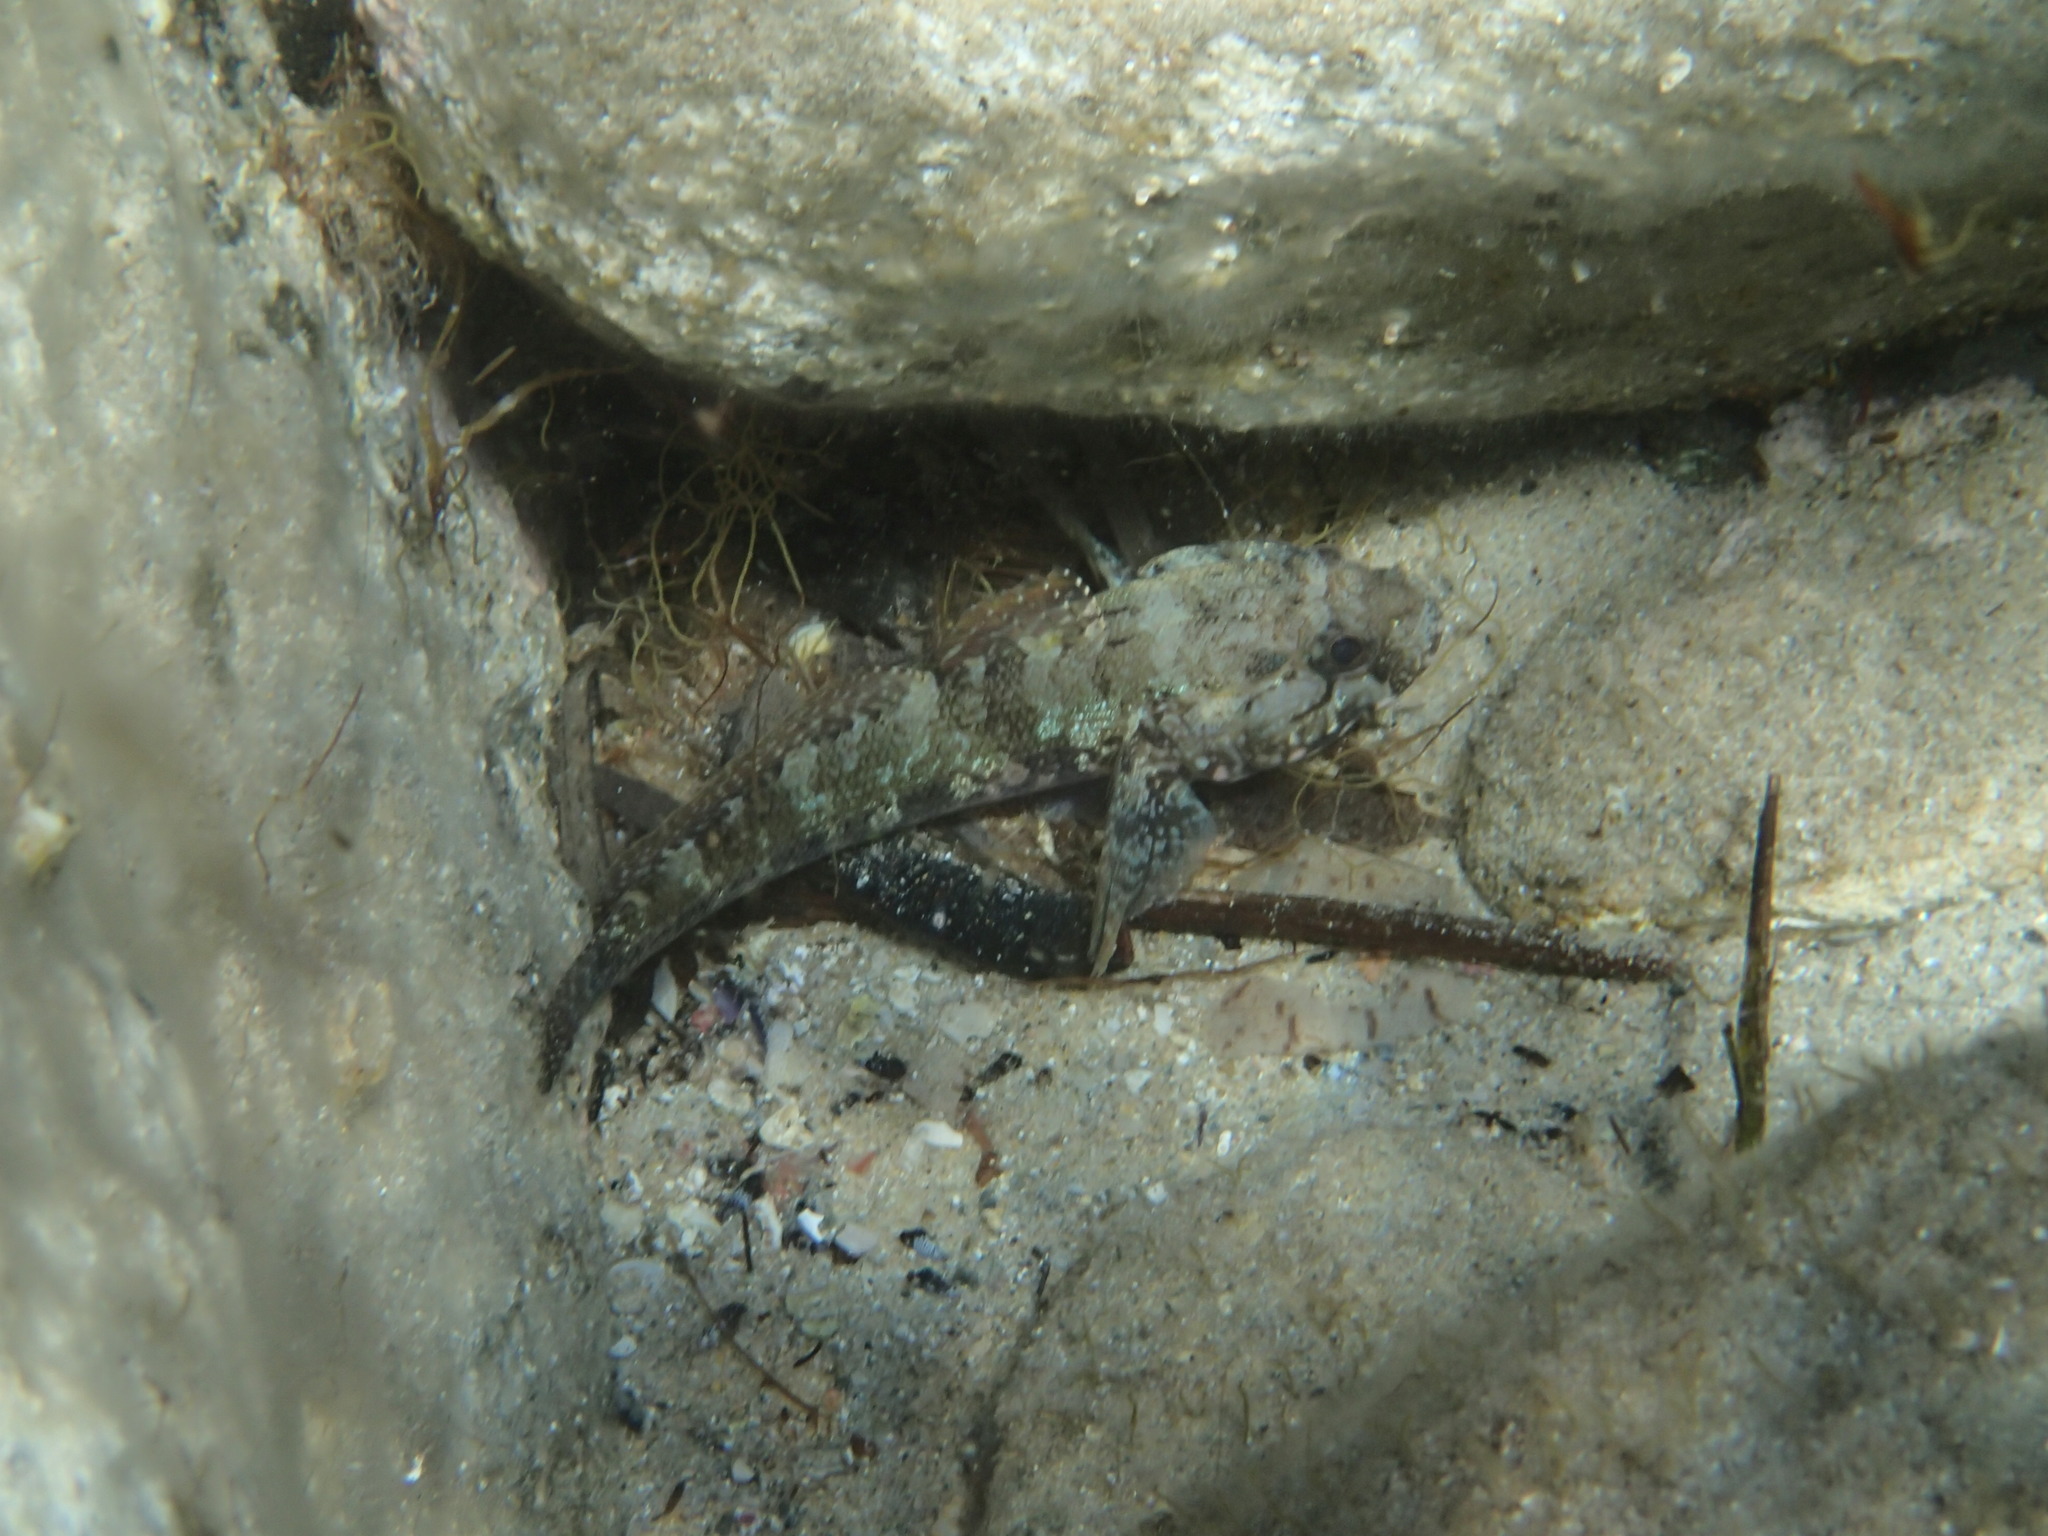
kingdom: Animalia
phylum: Chordata
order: Perciformes
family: Gobiidae
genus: Gobius
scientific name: Gobius paganellus
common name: Rock goby
